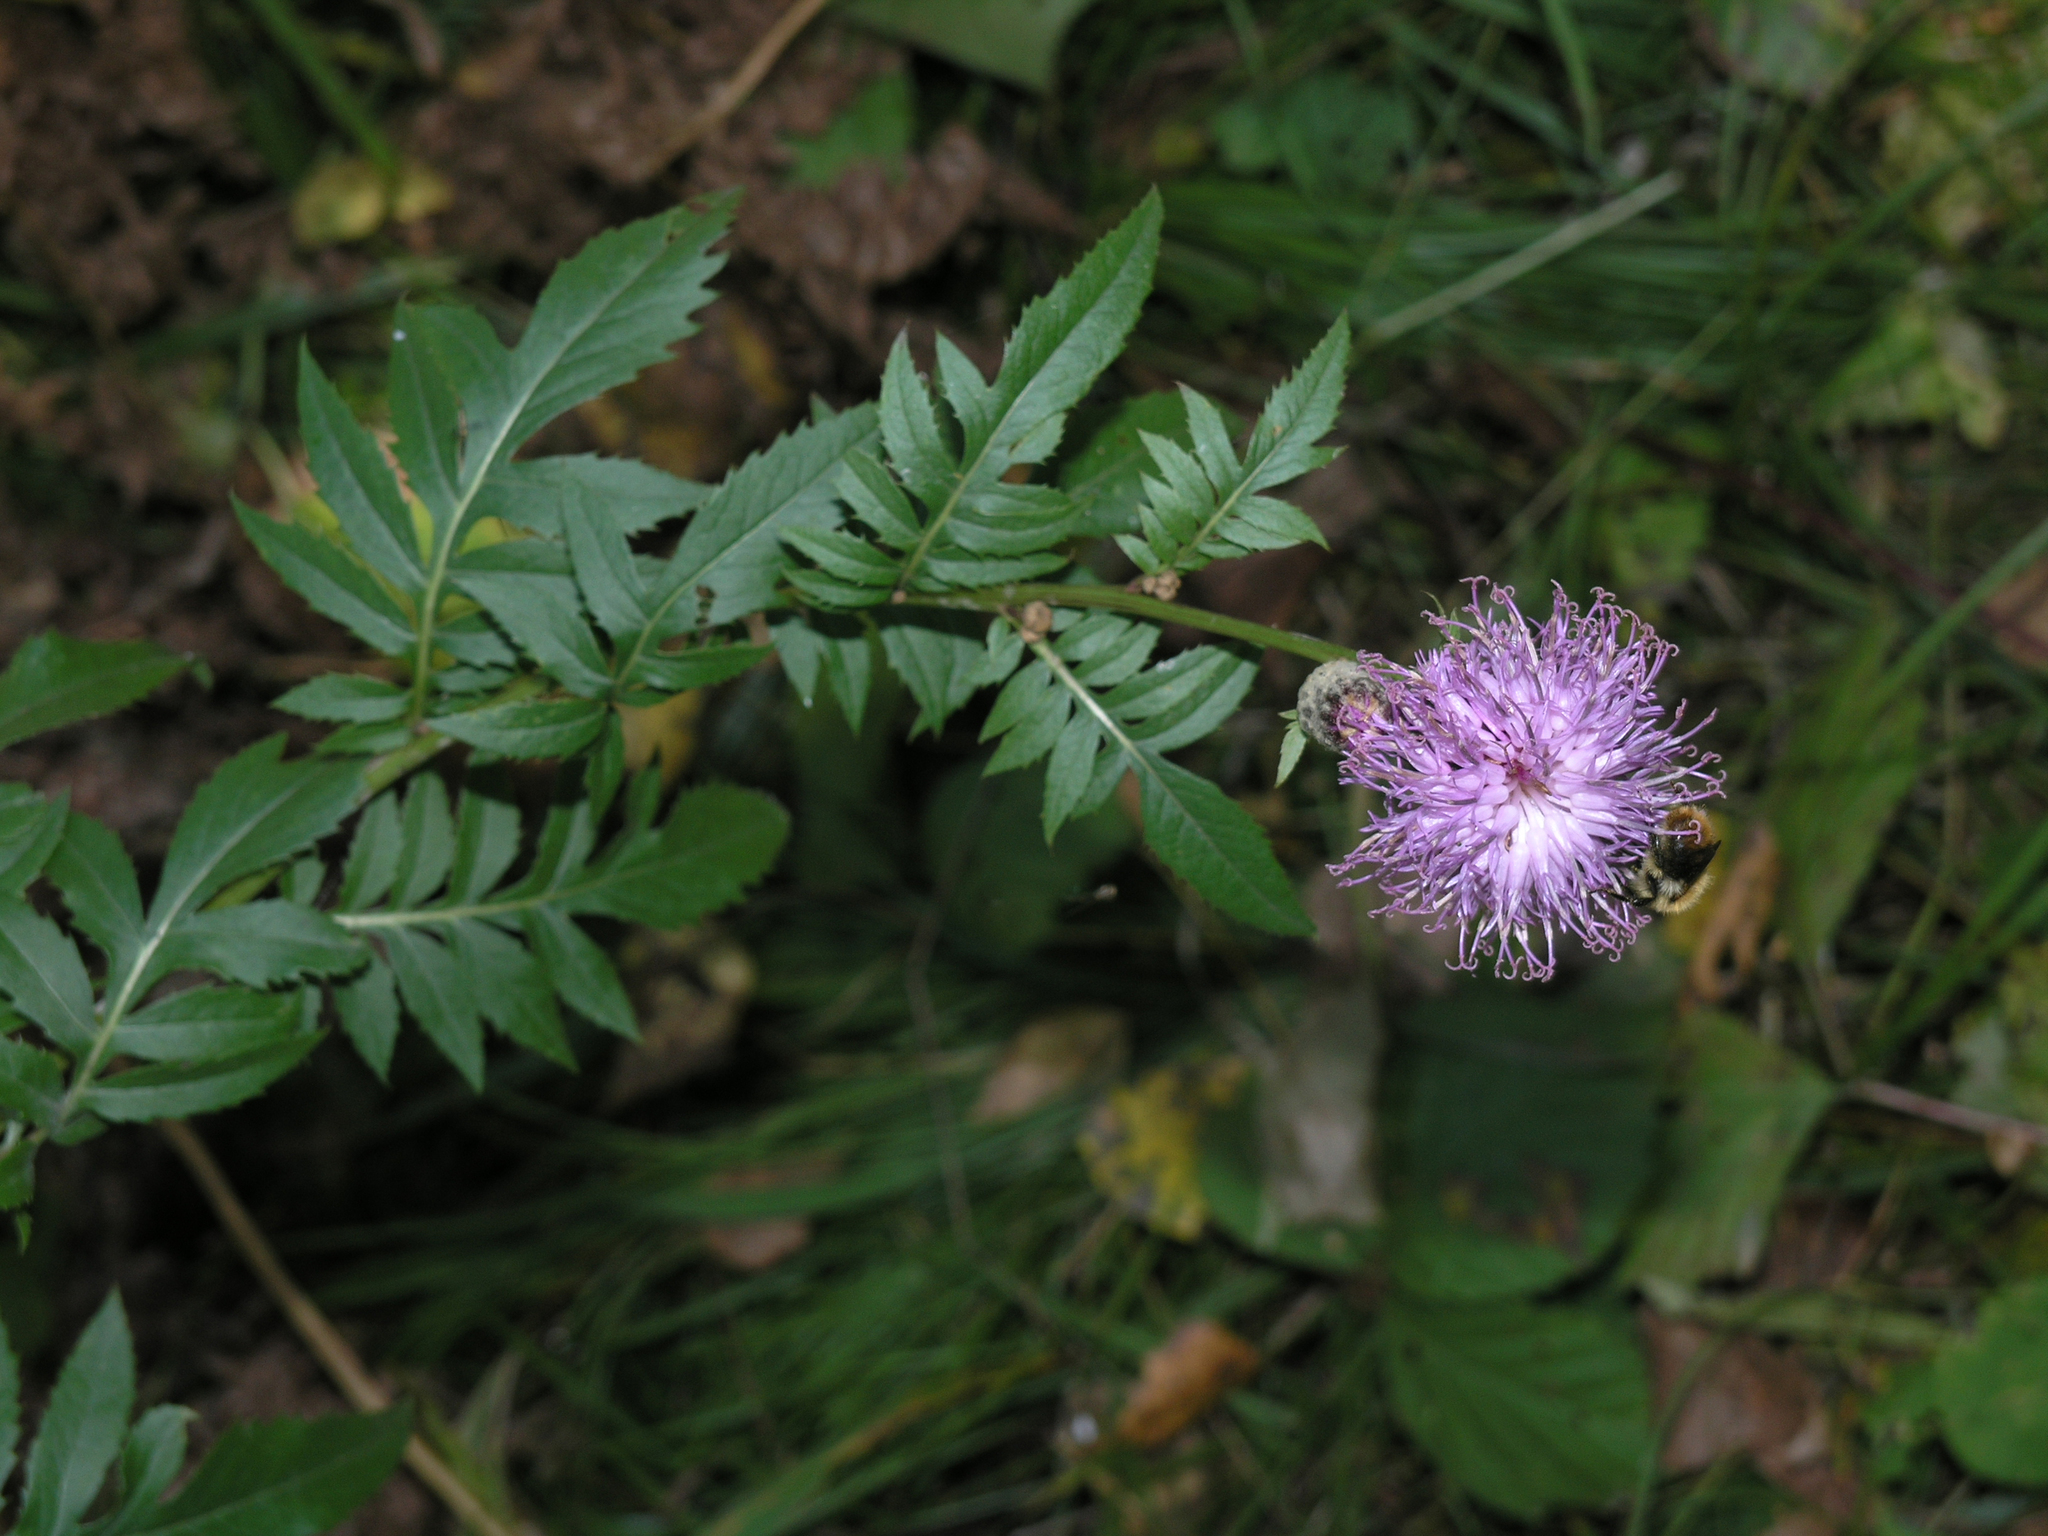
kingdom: Plantae
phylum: Tracheophyta
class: Magnoliopsida
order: Asterales
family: Asteraceae
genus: Serratula
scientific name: Serratula coronata
